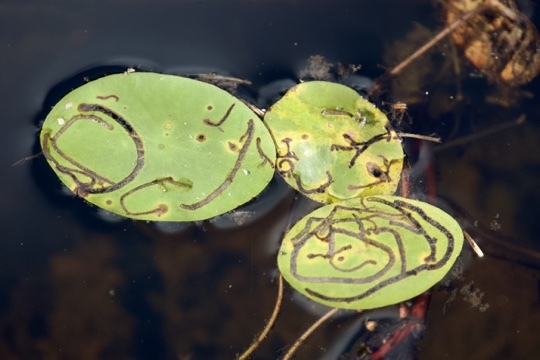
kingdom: Animalia
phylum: Arthropoda
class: Insecta
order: Diptera
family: Chironomidae
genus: Polypedilum
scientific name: Polypedilum braseniae
